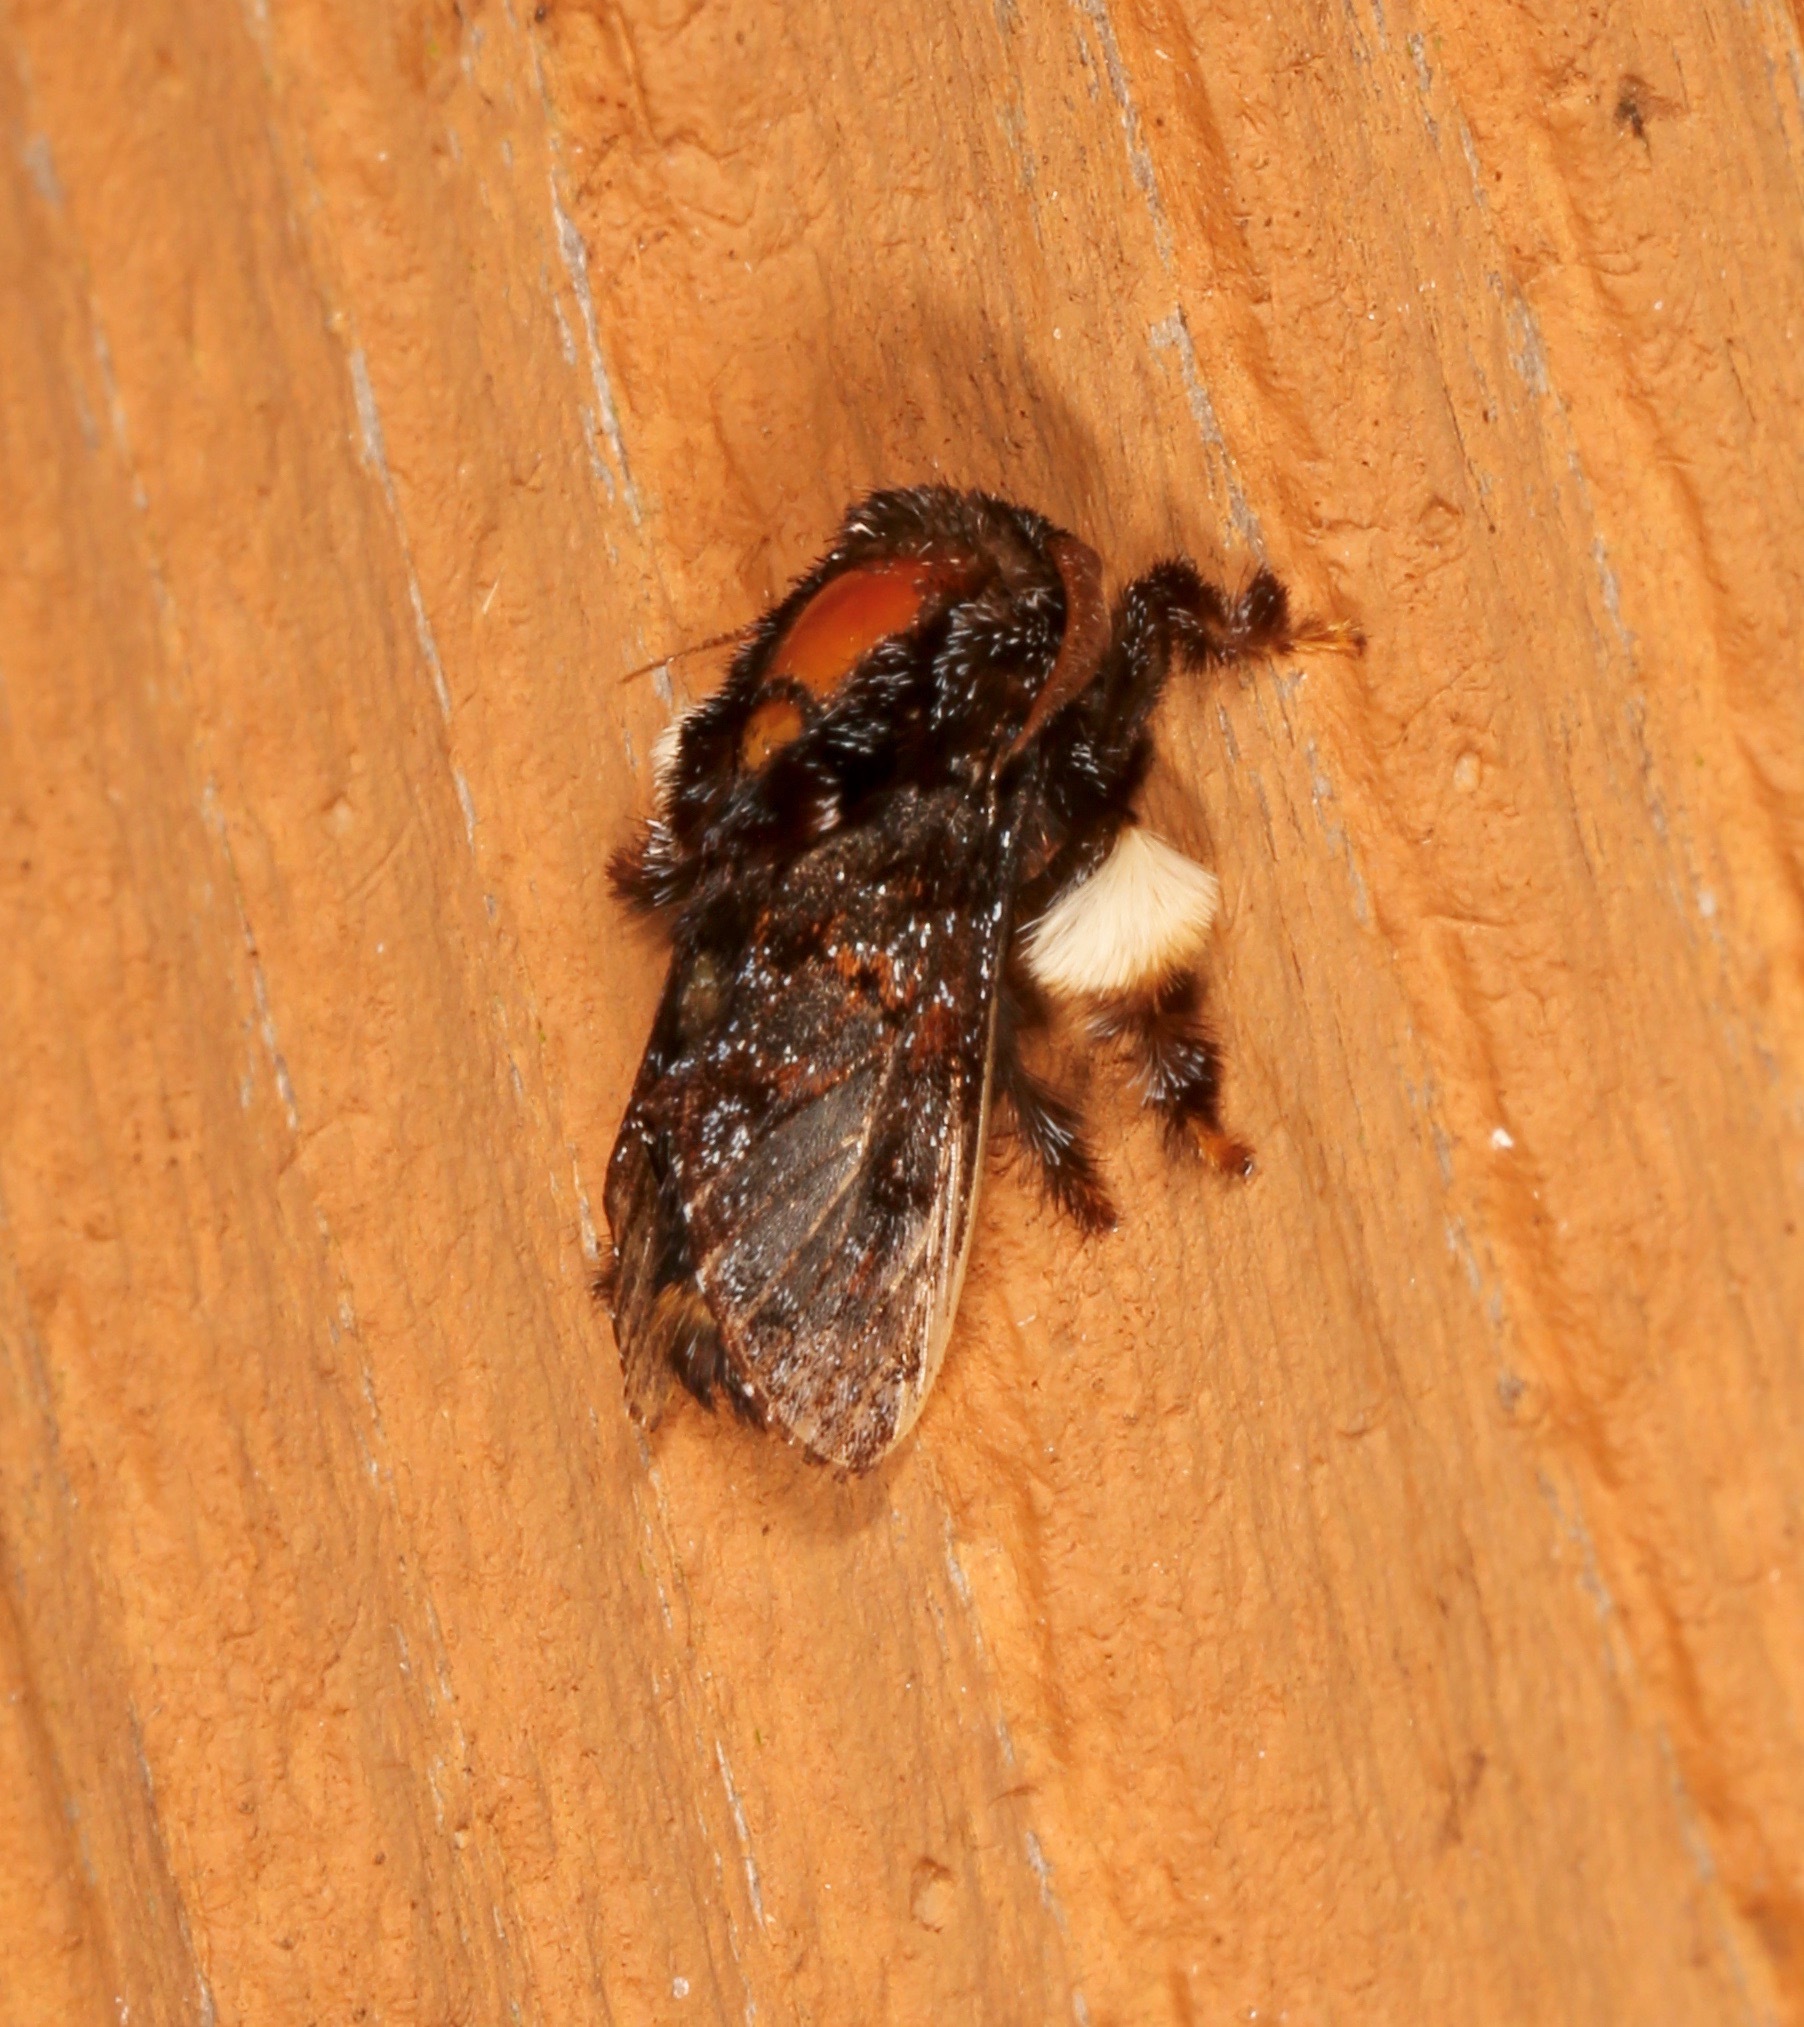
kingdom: Animalia
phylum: Arthropoda
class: Insecta
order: Lepidoptera
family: Limacodidae
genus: Phobetron
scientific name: Phobetron pithecium
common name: Hag moth
